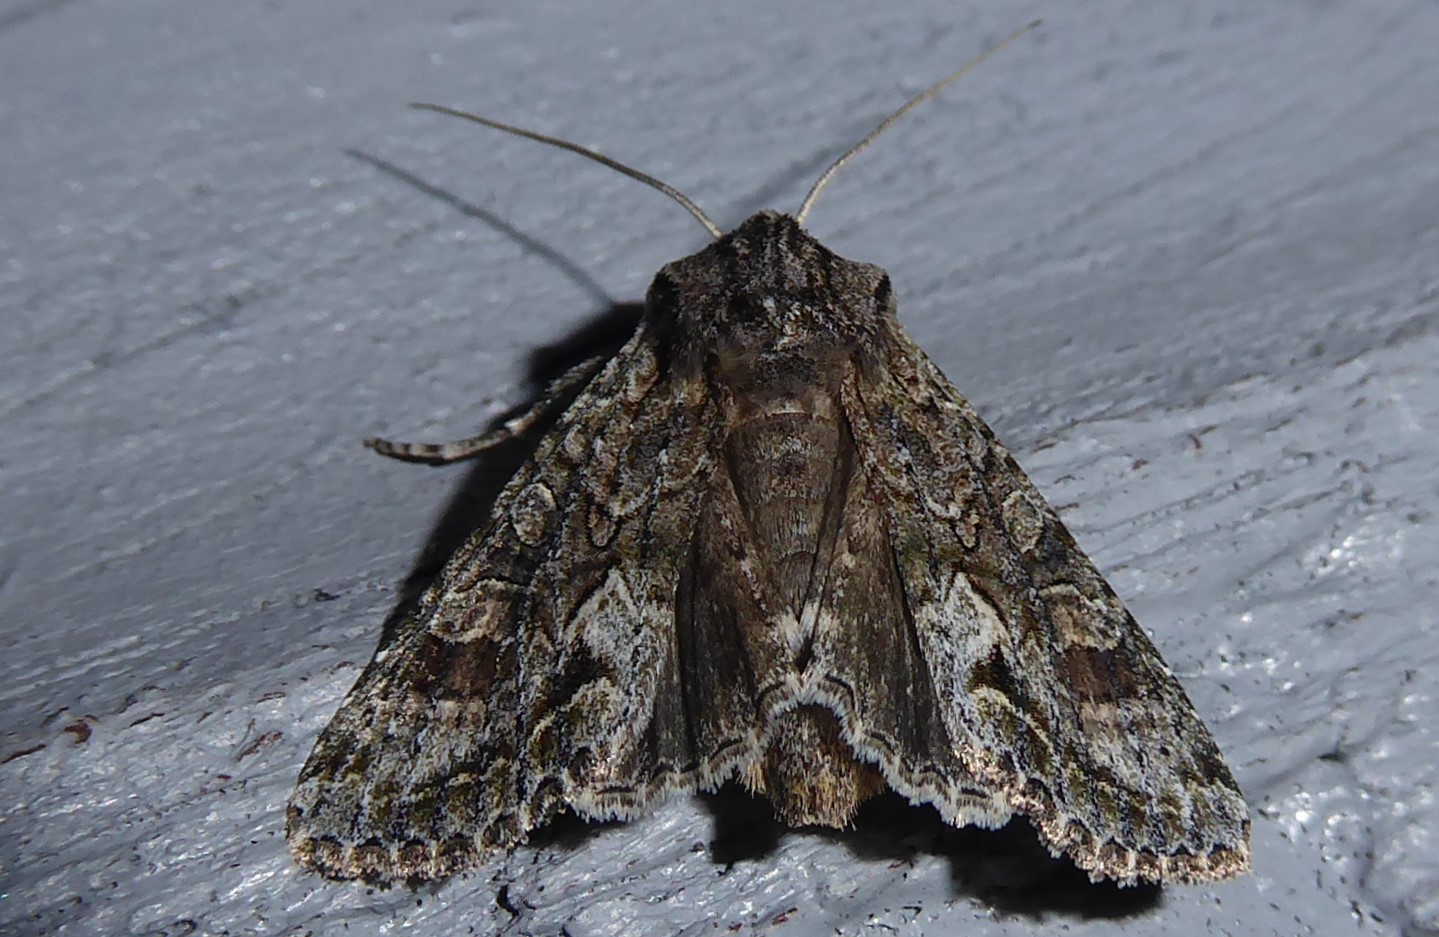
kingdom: Animalia
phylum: Arthropoda
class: Insecta
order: Lepidoptera
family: Noctuidae
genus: Ichneutica
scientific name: Ichneutica mutans
